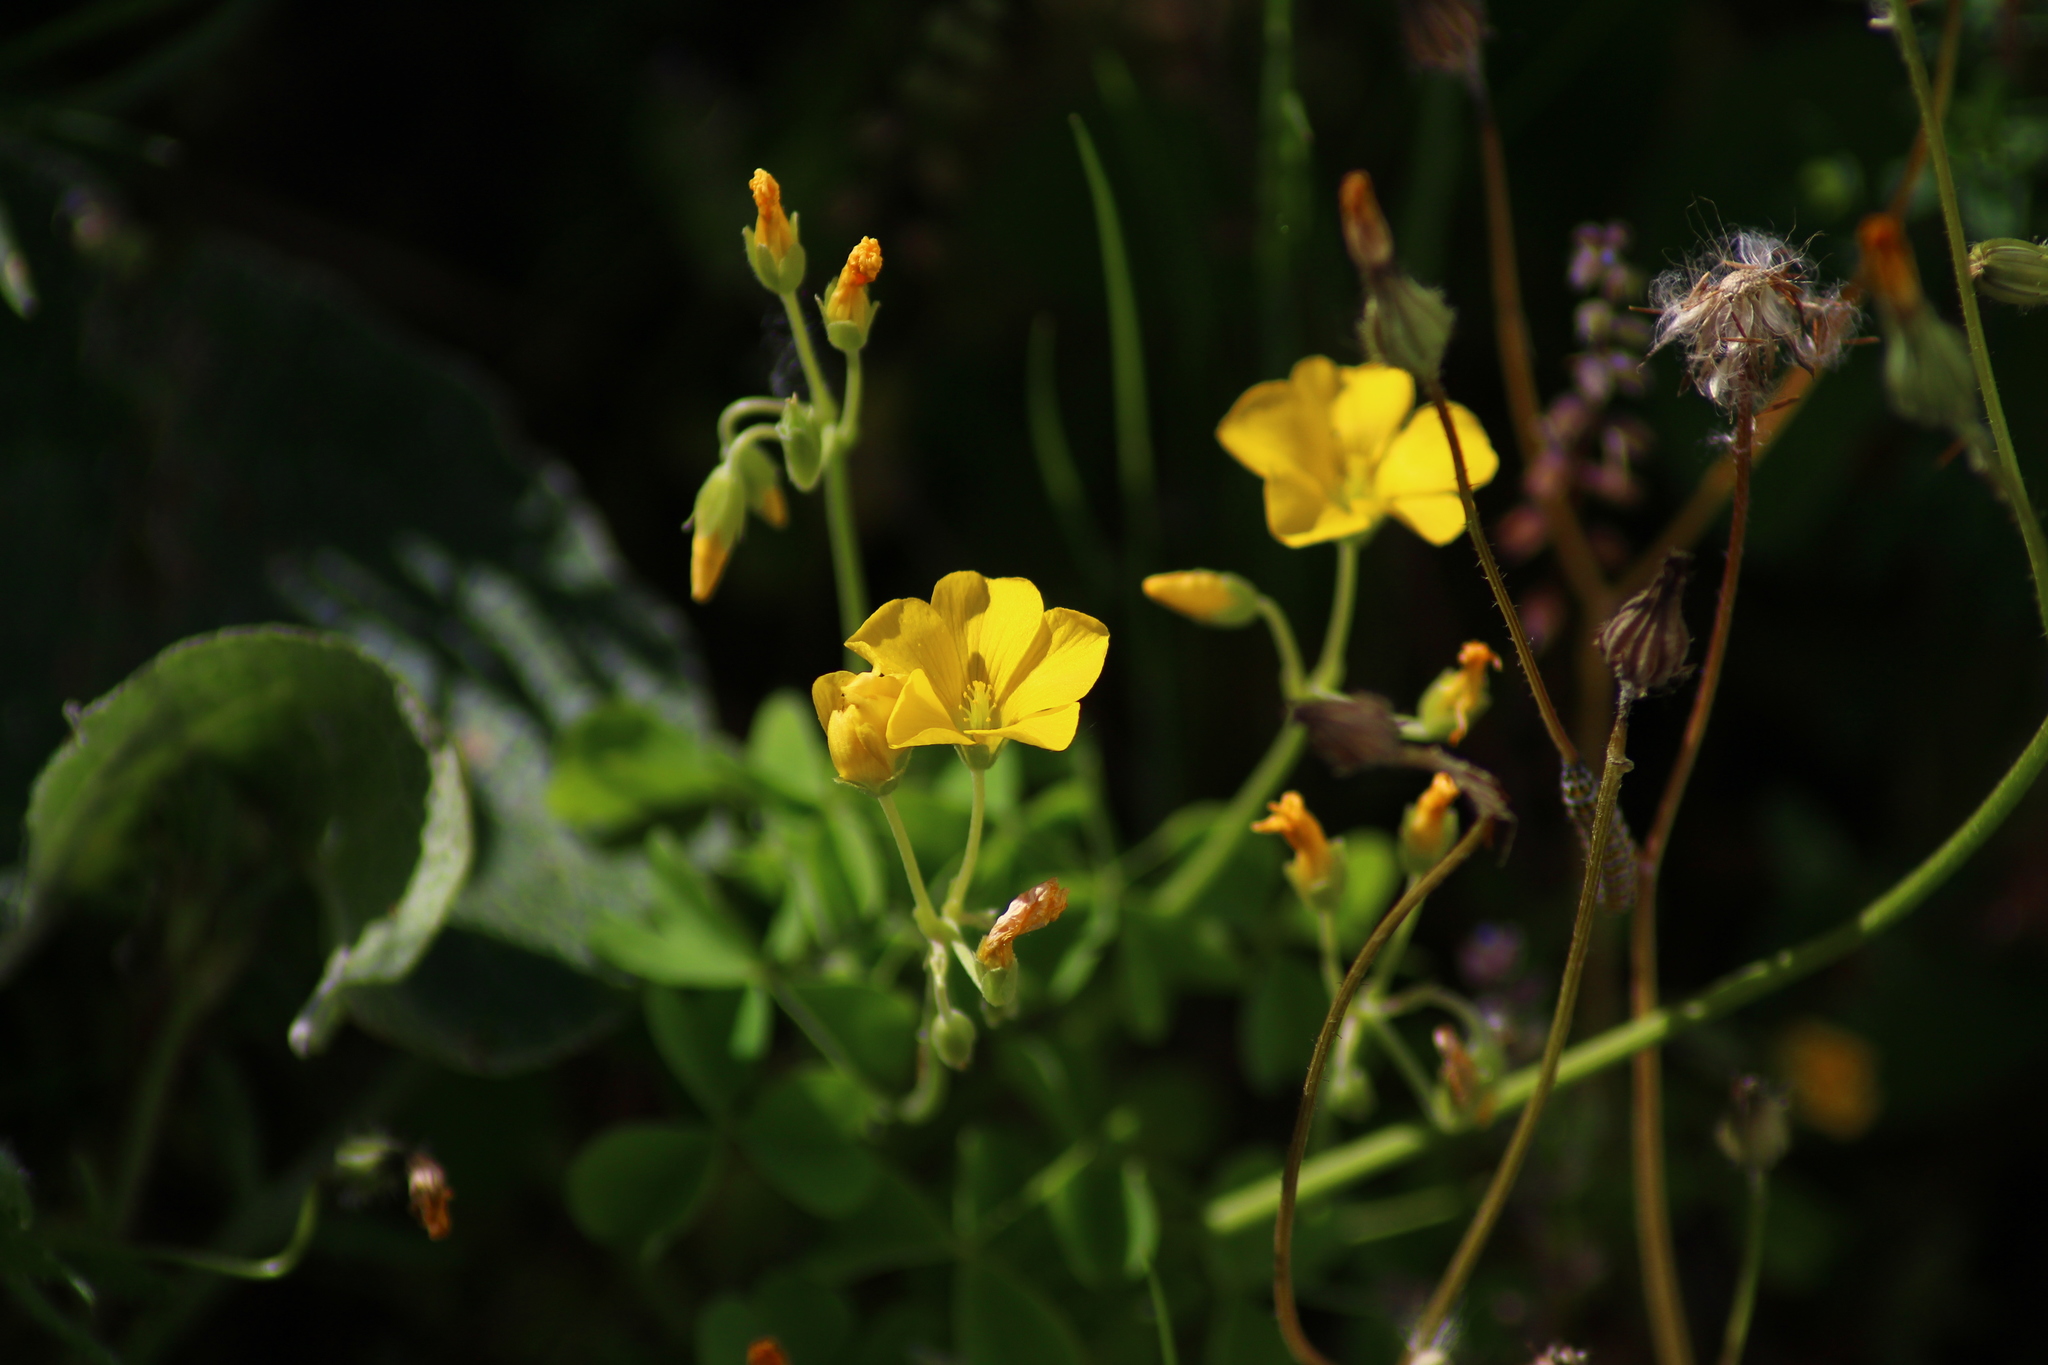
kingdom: Plantae
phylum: Tracheophyta
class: Magnoliopsida
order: Oxalidales
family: Oxalidaceae
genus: Oxalis
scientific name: Oxalis dillenii
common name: Sussex yellow-sorrel
